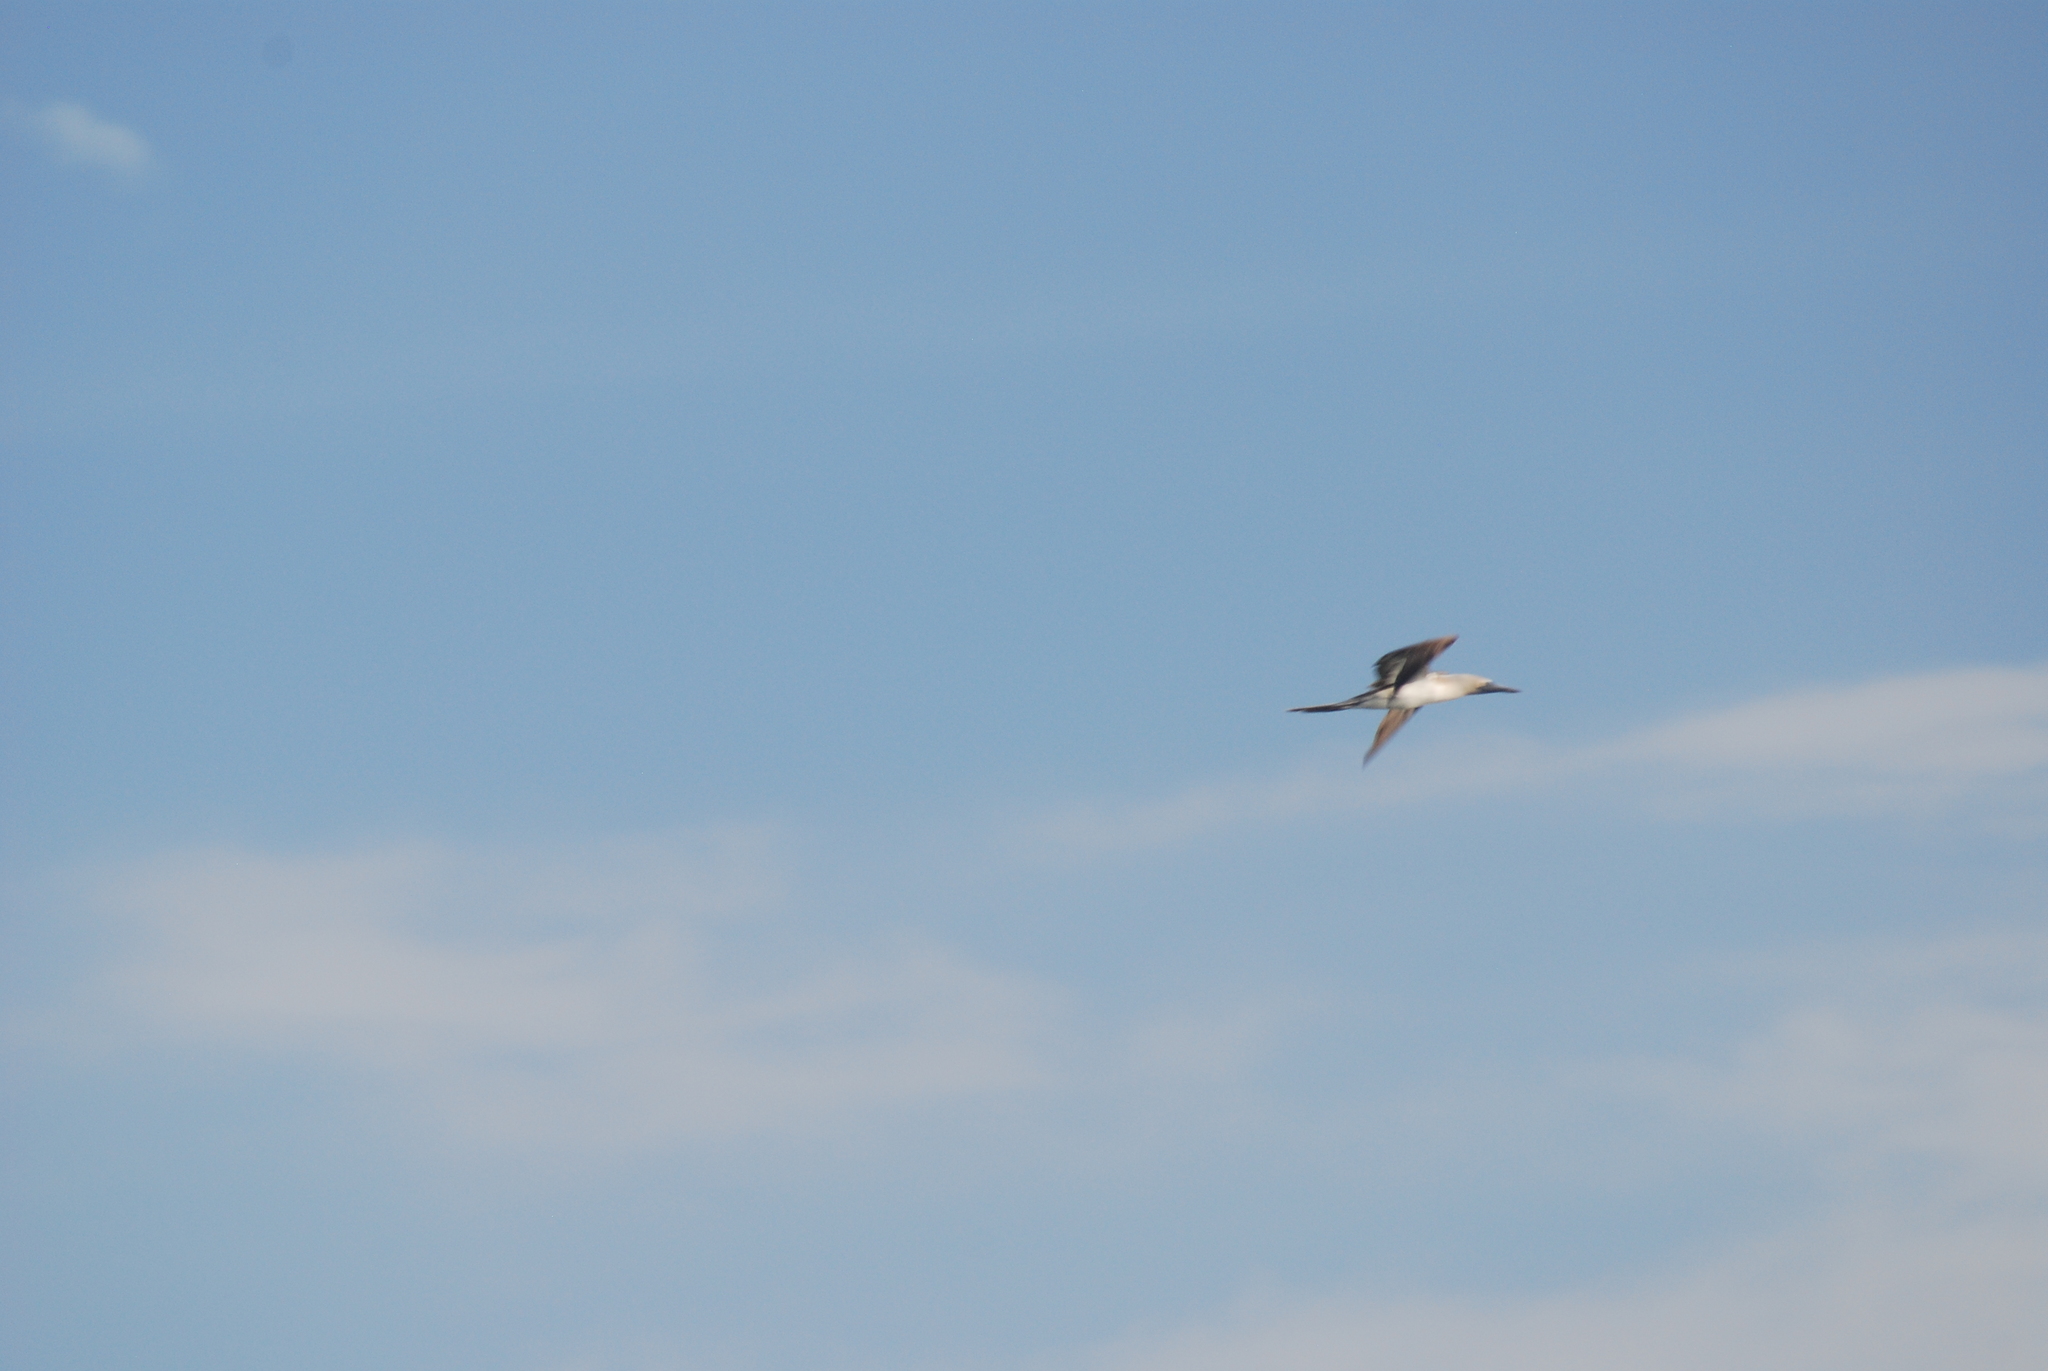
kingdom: Animalia
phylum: Chordata
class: Aves
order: Suliformes
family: Sulidae
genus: Sula
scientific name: Sula nebouxii
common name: Blue-footed booby
